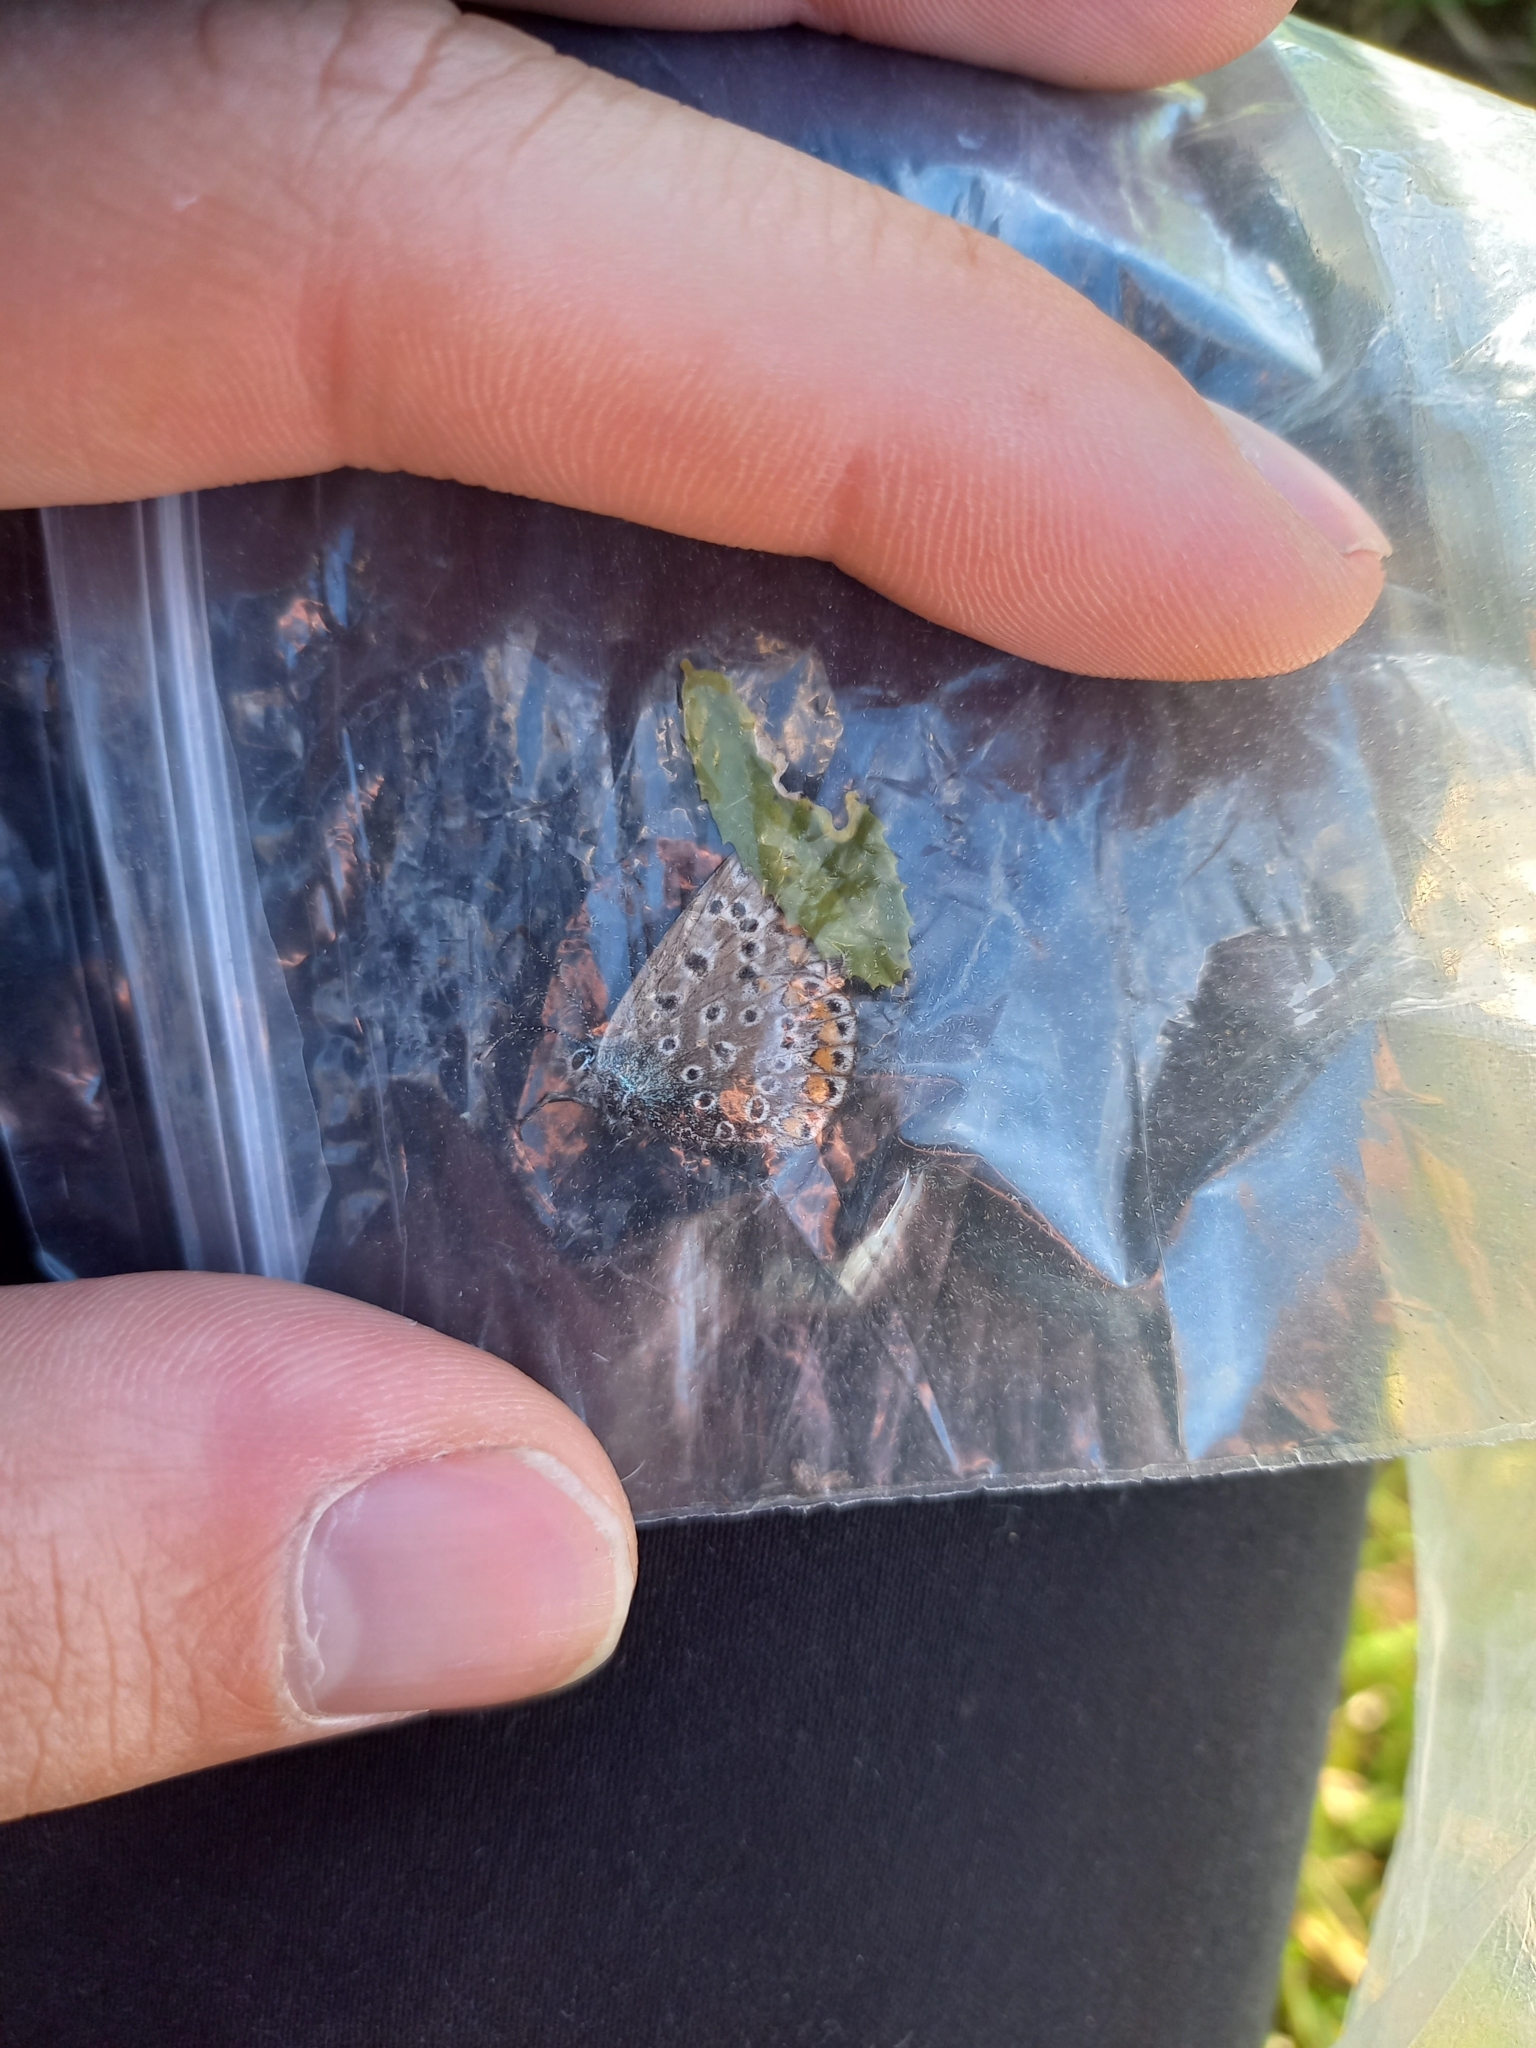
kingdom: Animalia
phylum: Arthropoda
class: Insecta
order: Lepidoptera
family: Lycaenidae
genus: Polyommatus
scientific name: Polyommatus icarus
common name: Common blue
